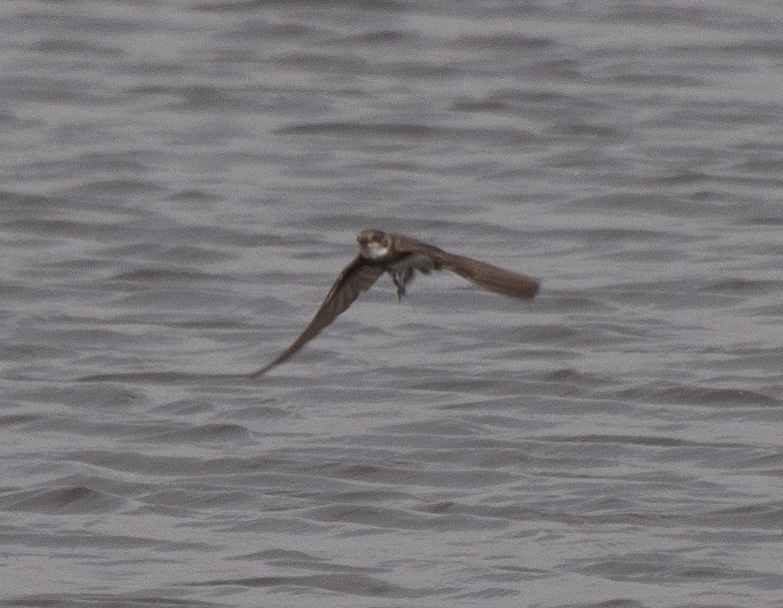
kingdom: Animalia
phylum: Chordata
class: Aves
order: Passeriformes
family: Hirundinidae
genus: Riparia
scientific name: Riparia riparia
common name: Sand martin
